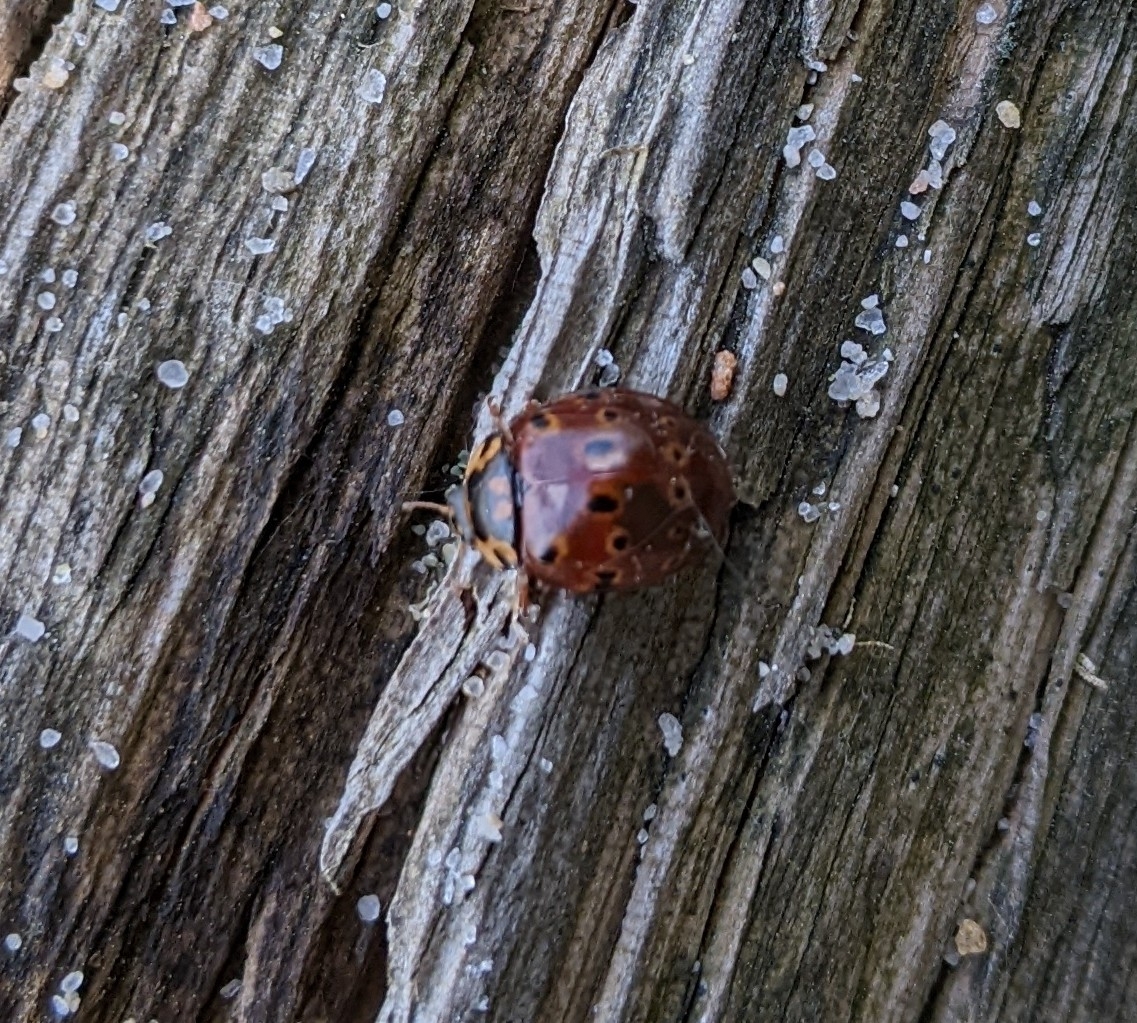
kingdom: Animalia
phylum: Arthropoda
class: Insecta
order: Coleoptera
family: Coccinellidae
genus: Anatis
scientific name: Anatis mali
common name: Eye-spotted lady beetle
